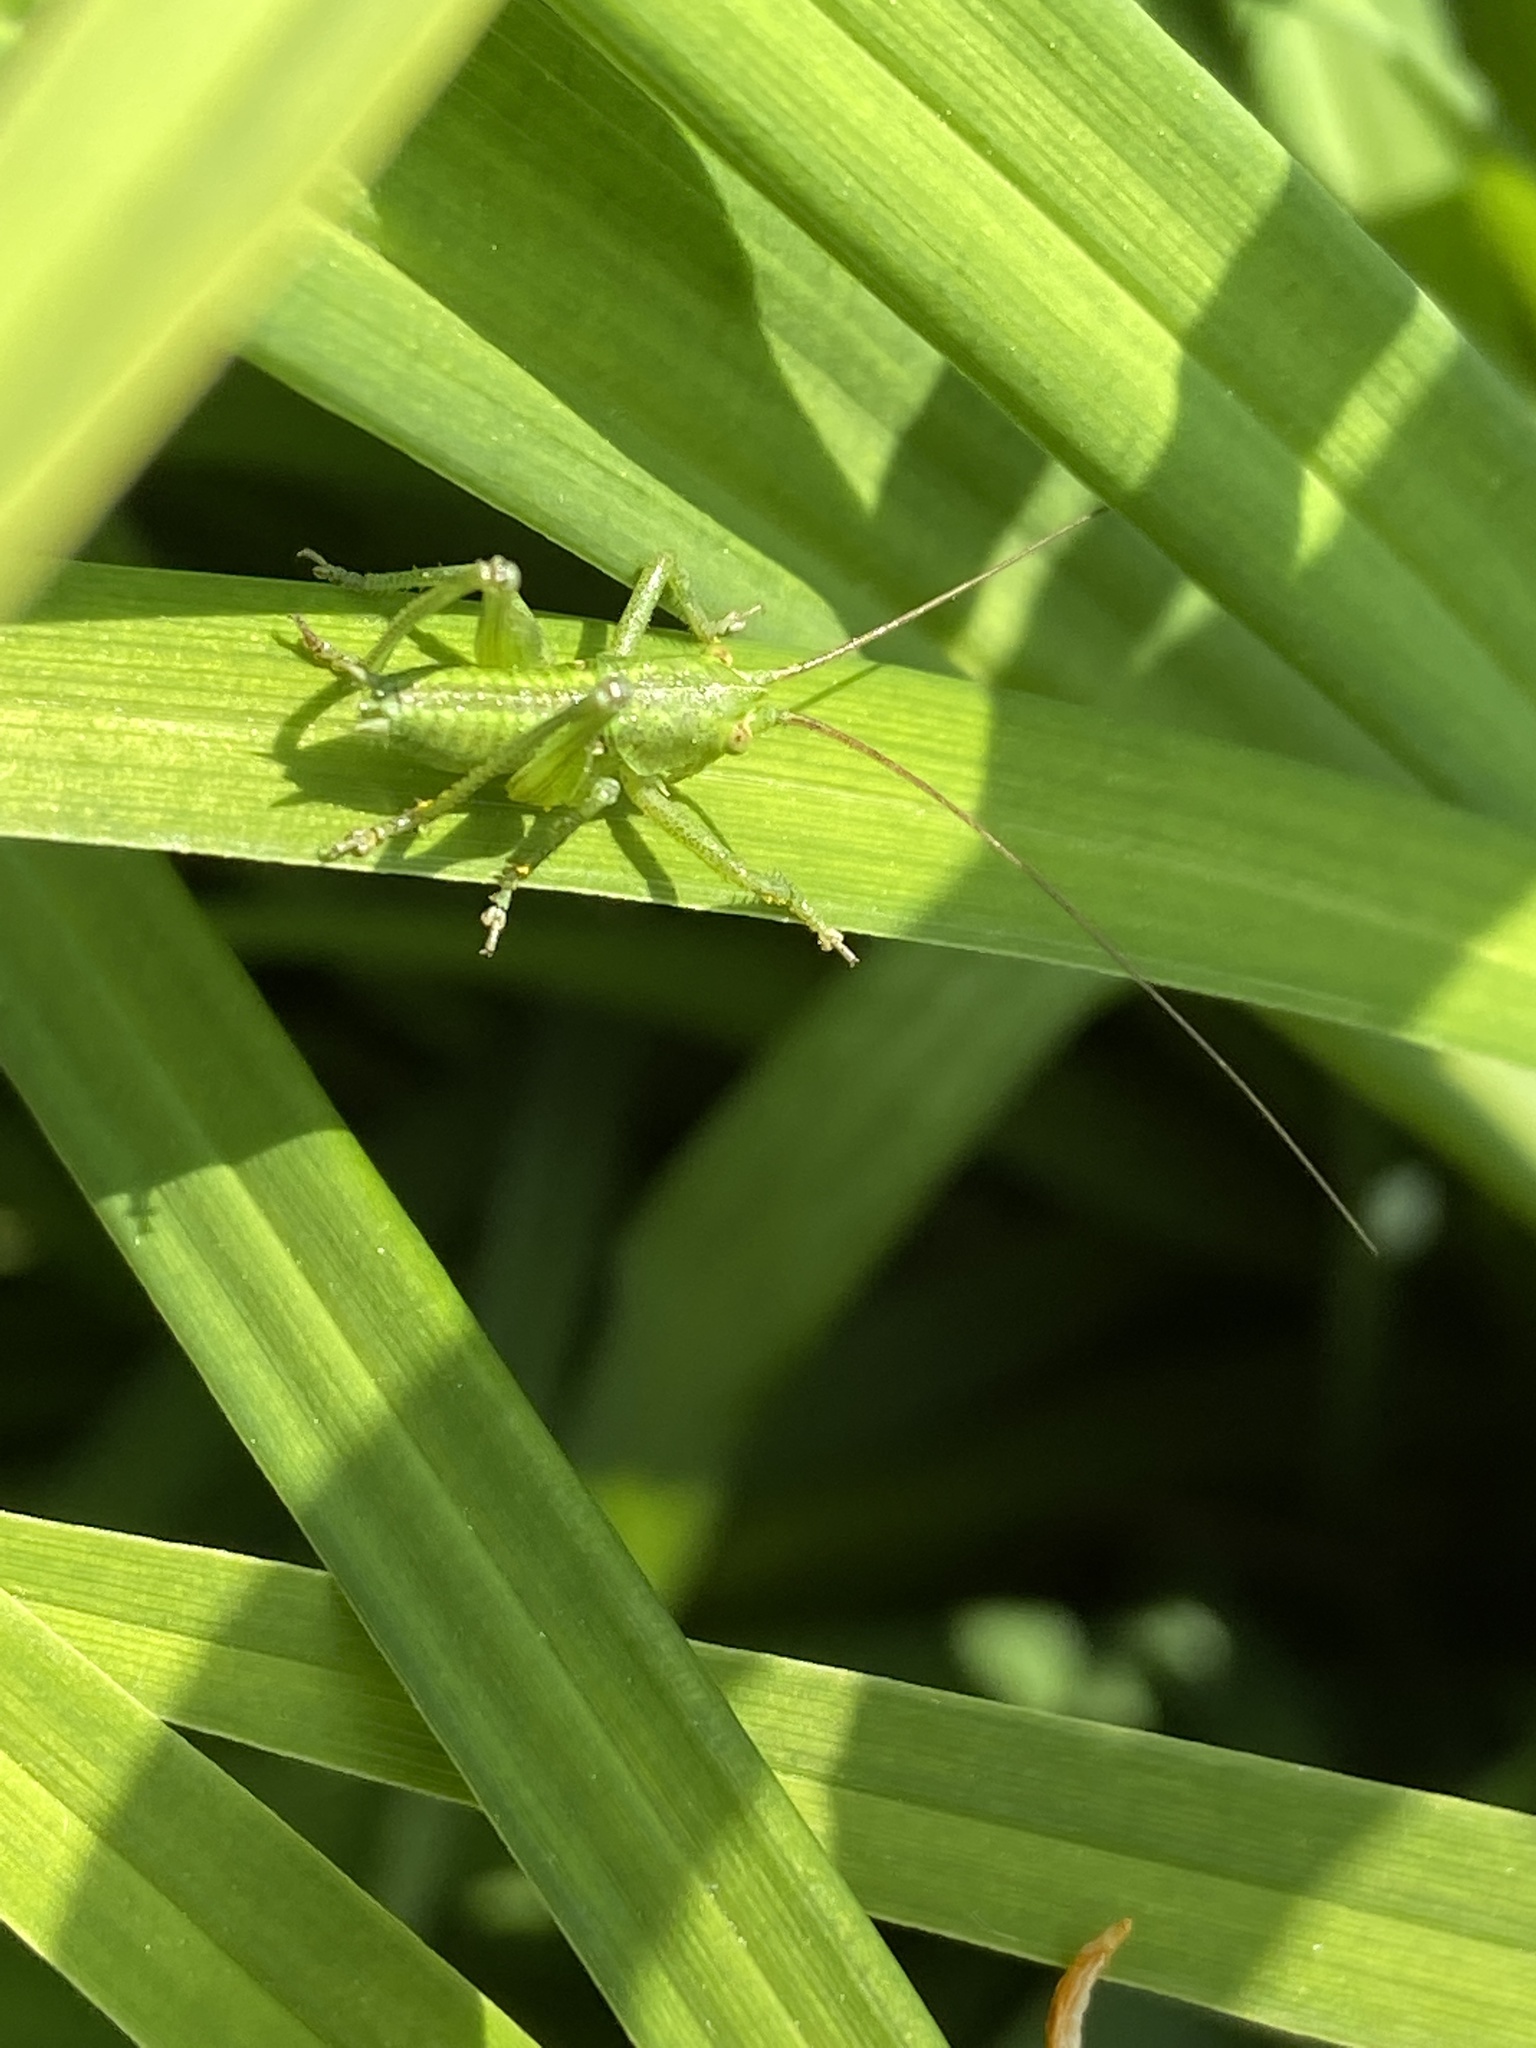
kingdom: Animalia
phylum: Arthropoda
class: Insecta
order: Orthoptera
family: Tettigoniidae
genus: Tettigonia
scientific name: Tettigonia viridissima
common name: Great green bush-cricket
